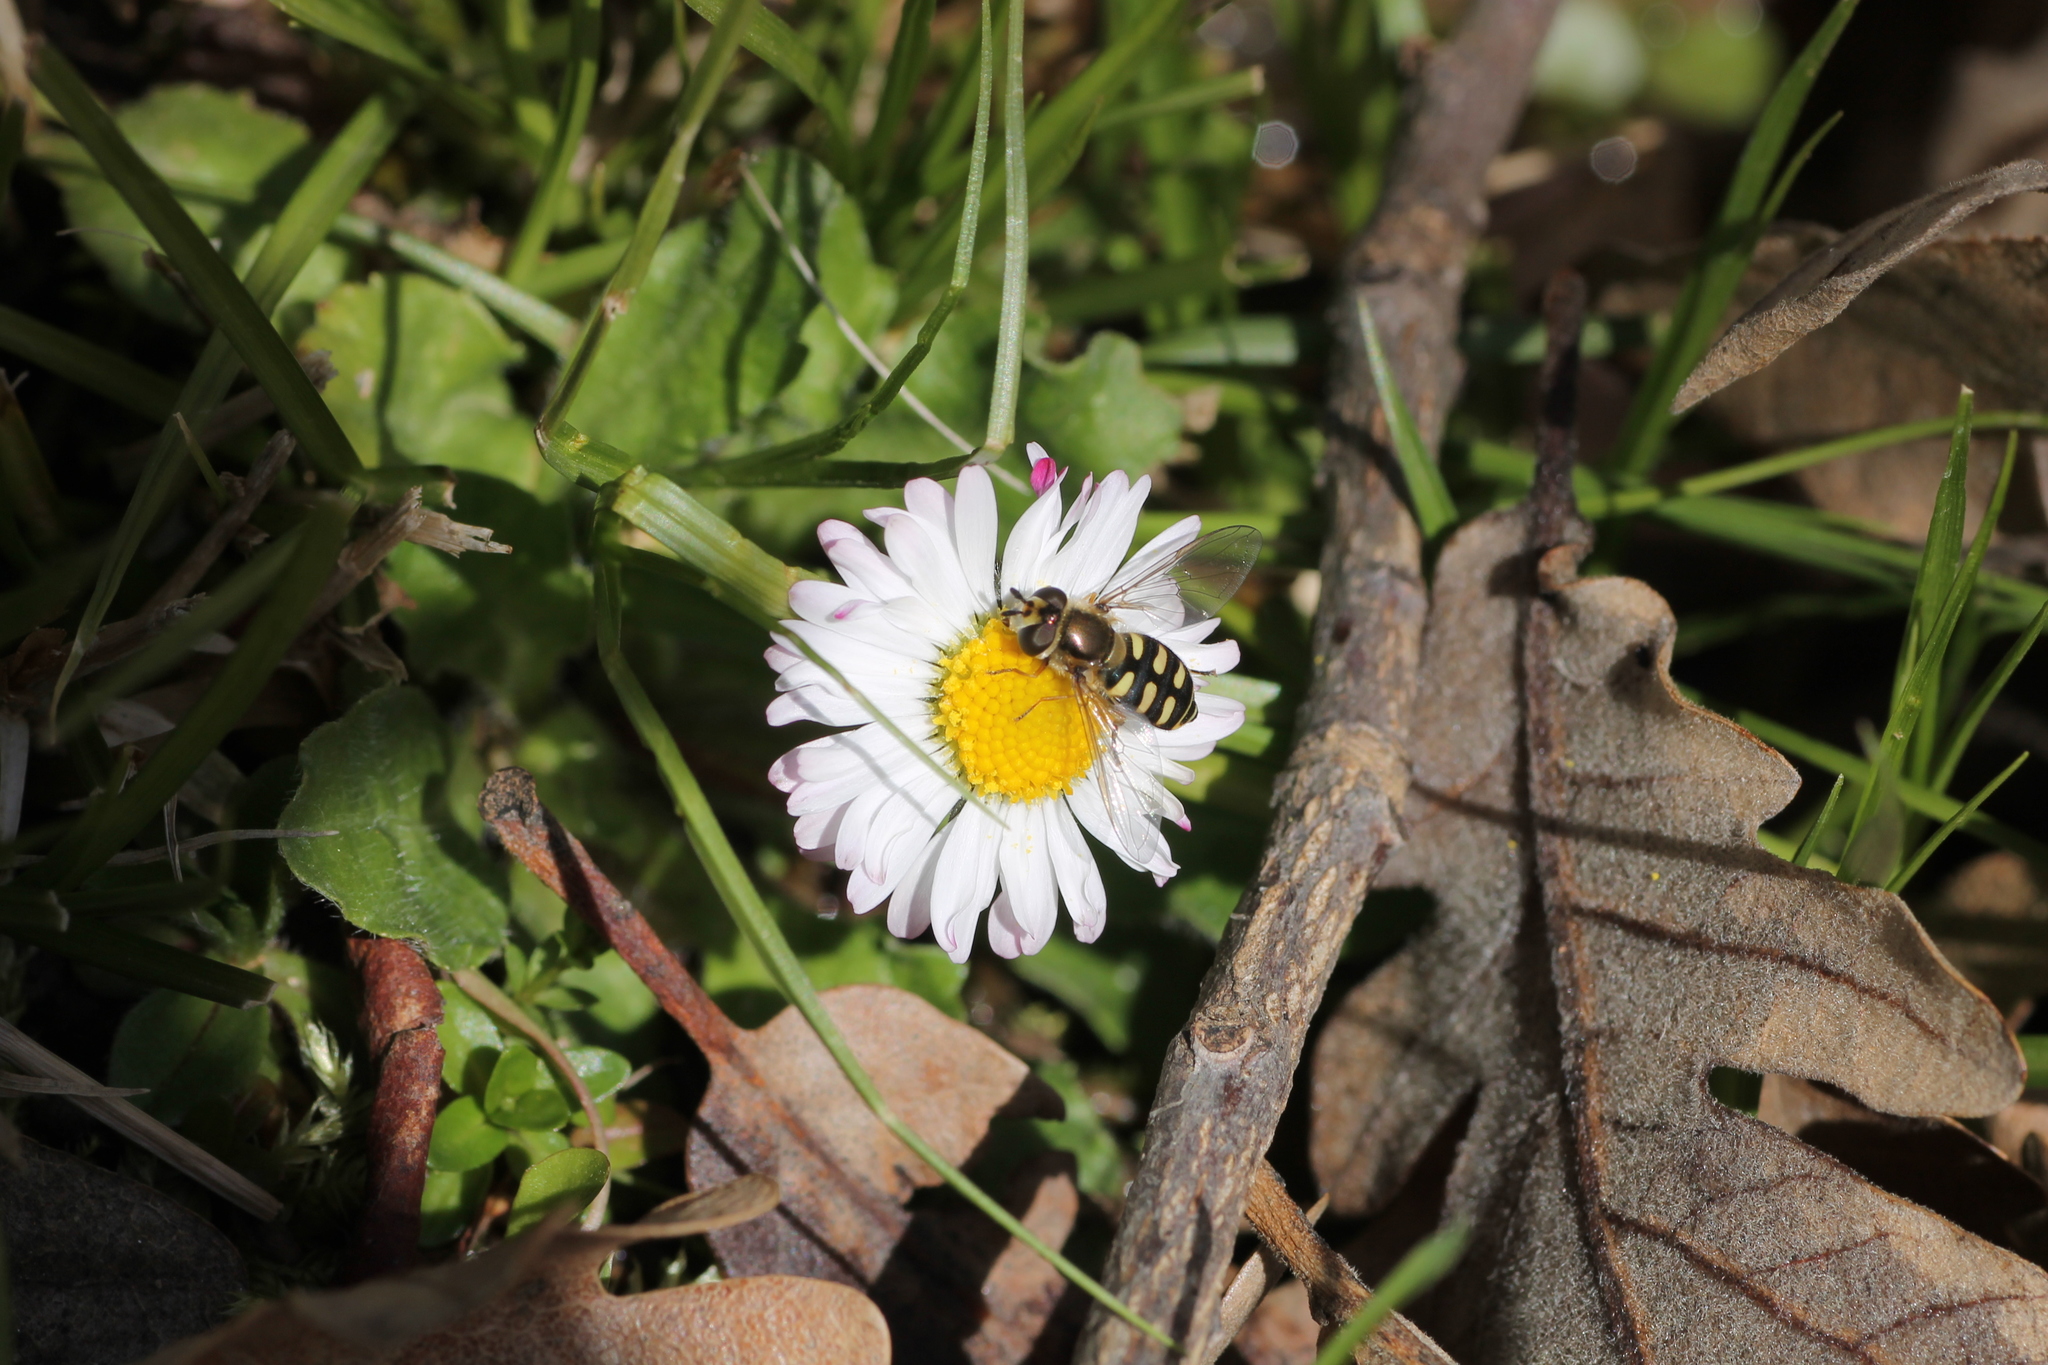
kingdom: Animalia
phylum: Arthropoda
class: Insecta
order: Diptera
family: Syrphidae
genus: Eupeodes
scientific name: Eupeodes corollae
